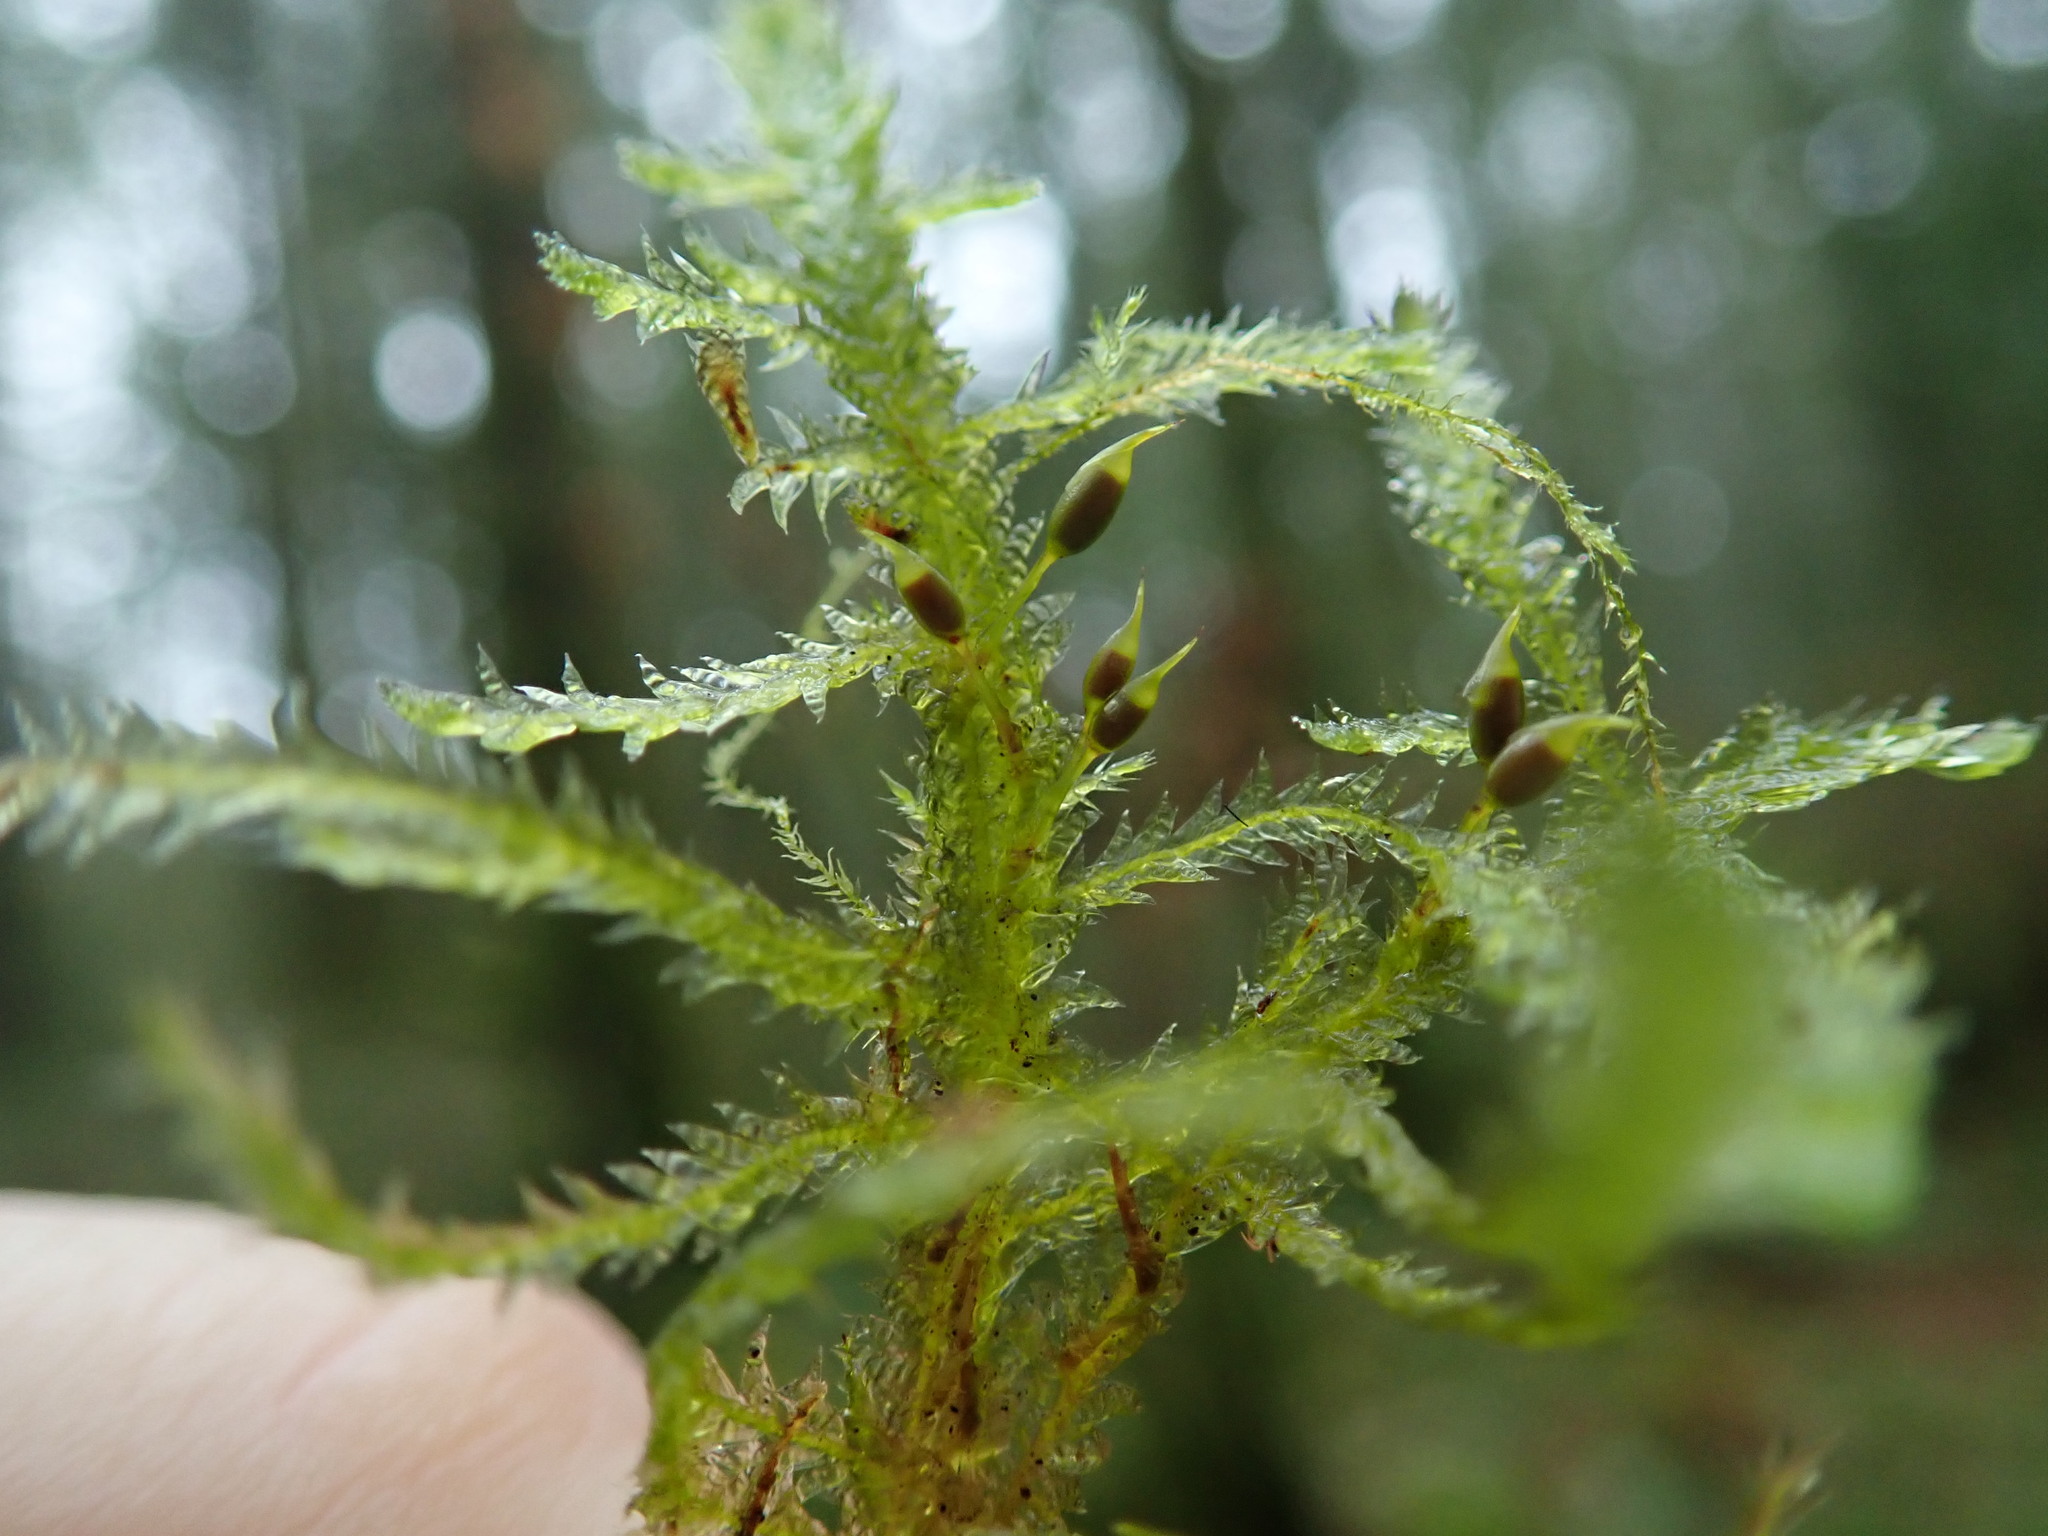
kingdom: Plantae
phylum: Bryophyta
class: Bryopsida
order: Hypnales
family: Neckeraceae
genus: Neckera
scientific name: Neckera douglasii
